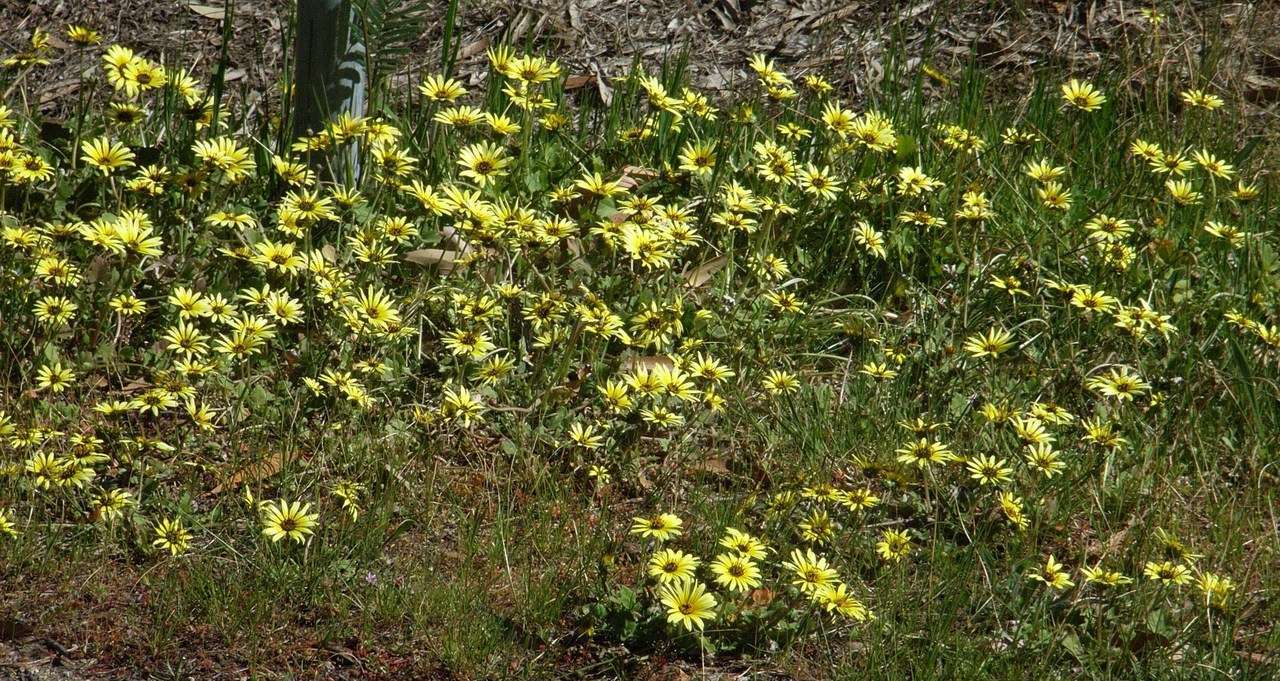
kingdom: Plantae
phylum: Tracheophyta
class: Magnoliopsida
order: Asterales
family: Asteraceae
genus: Arctotheca
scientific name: Arctotheca calendula
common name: Capeweed
